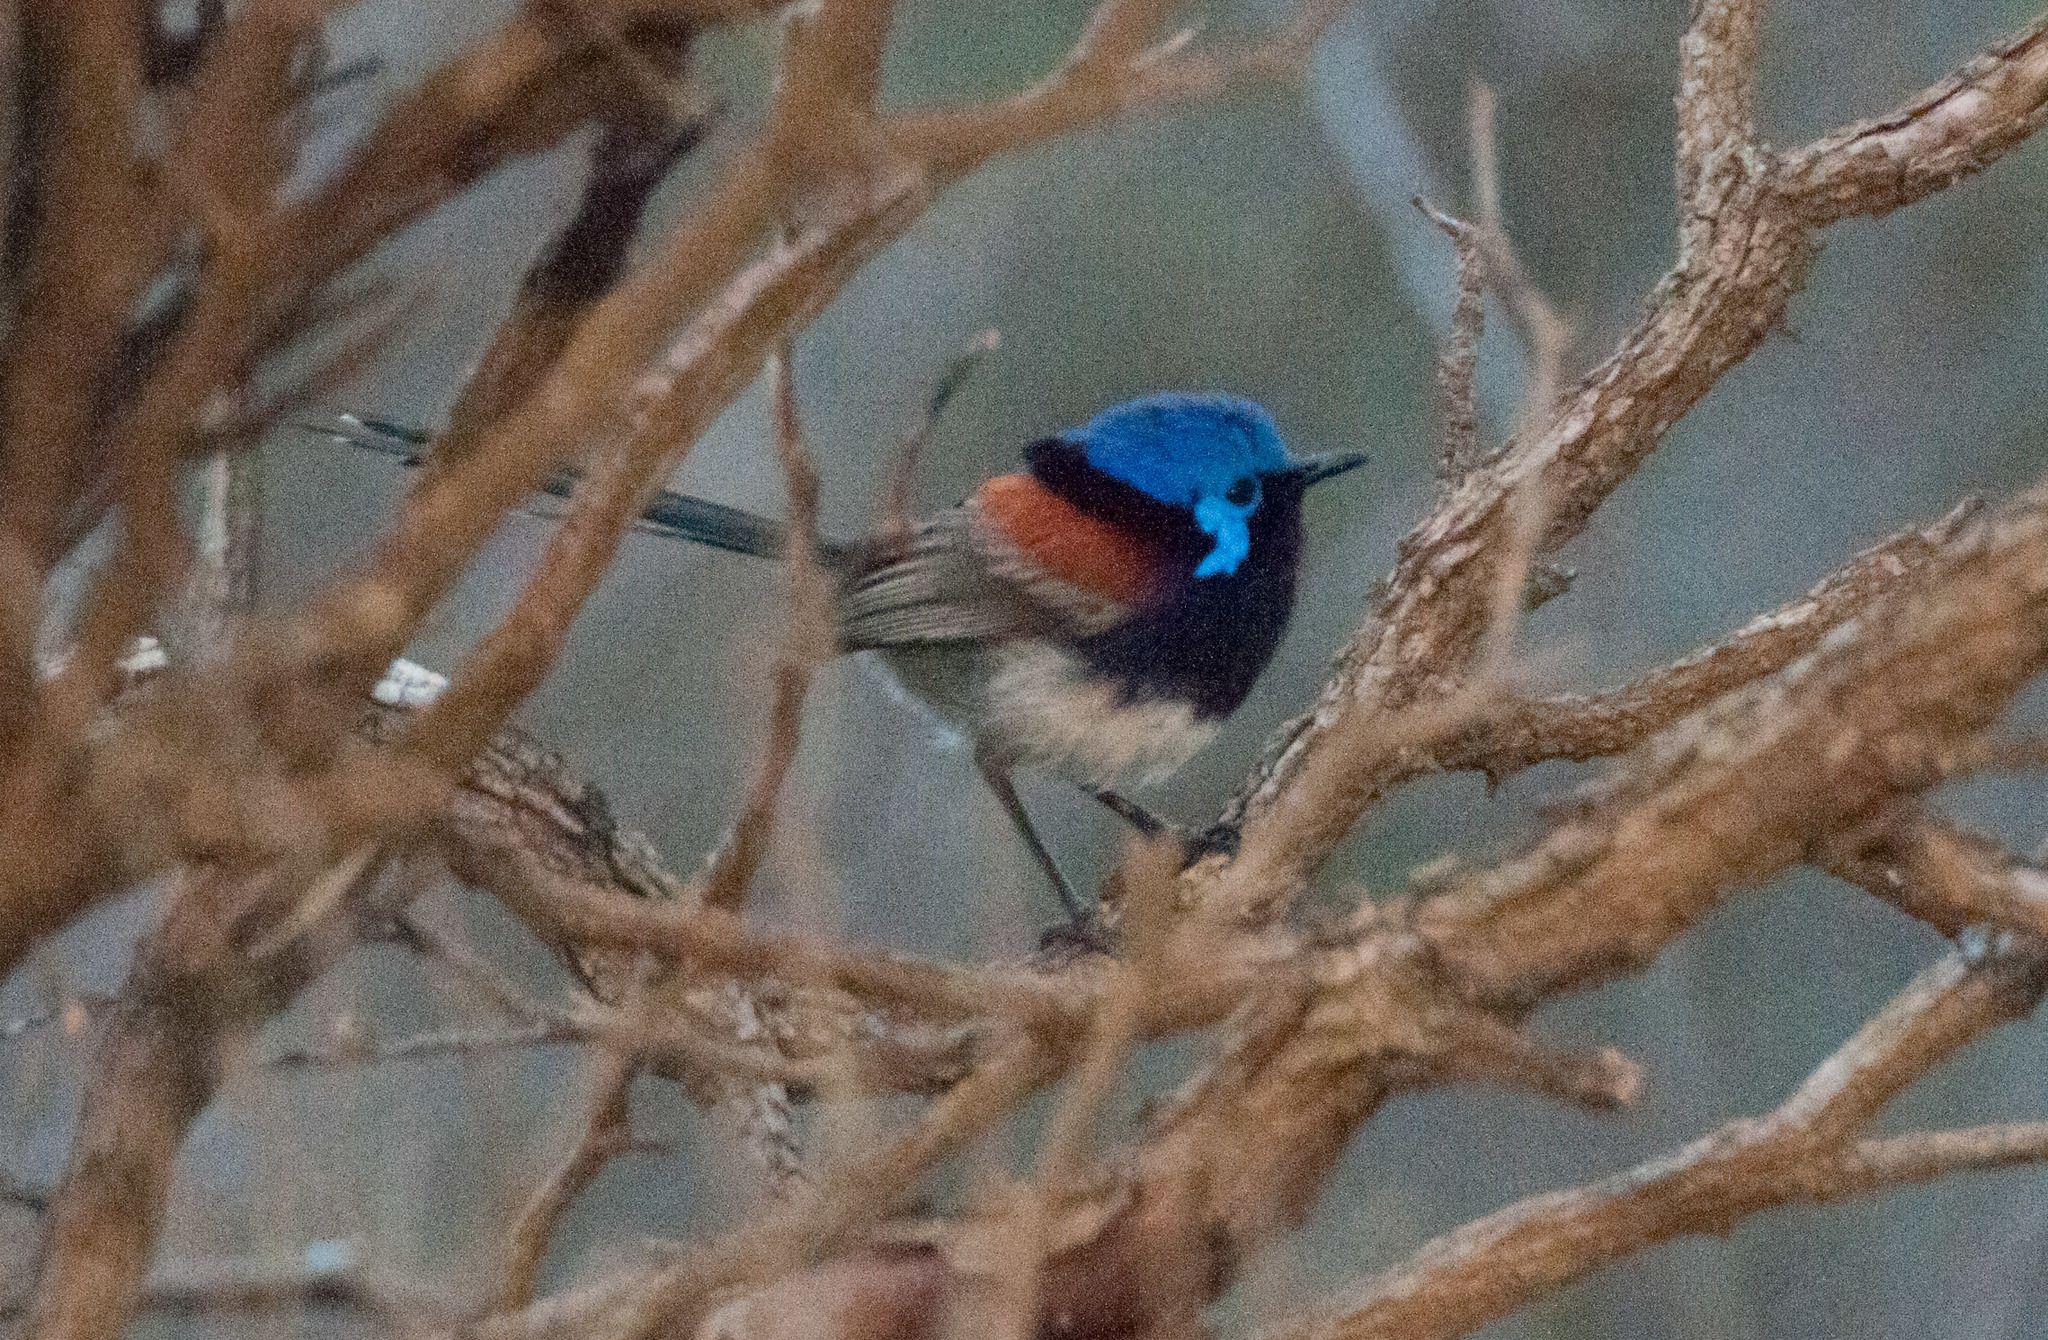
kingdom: Animalia
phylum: Chordata
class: Aves
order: Passeriformes
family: Maluridae
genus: Malurus
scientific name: Malurus pulcherrimus
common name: Blue-breasted fairywren
